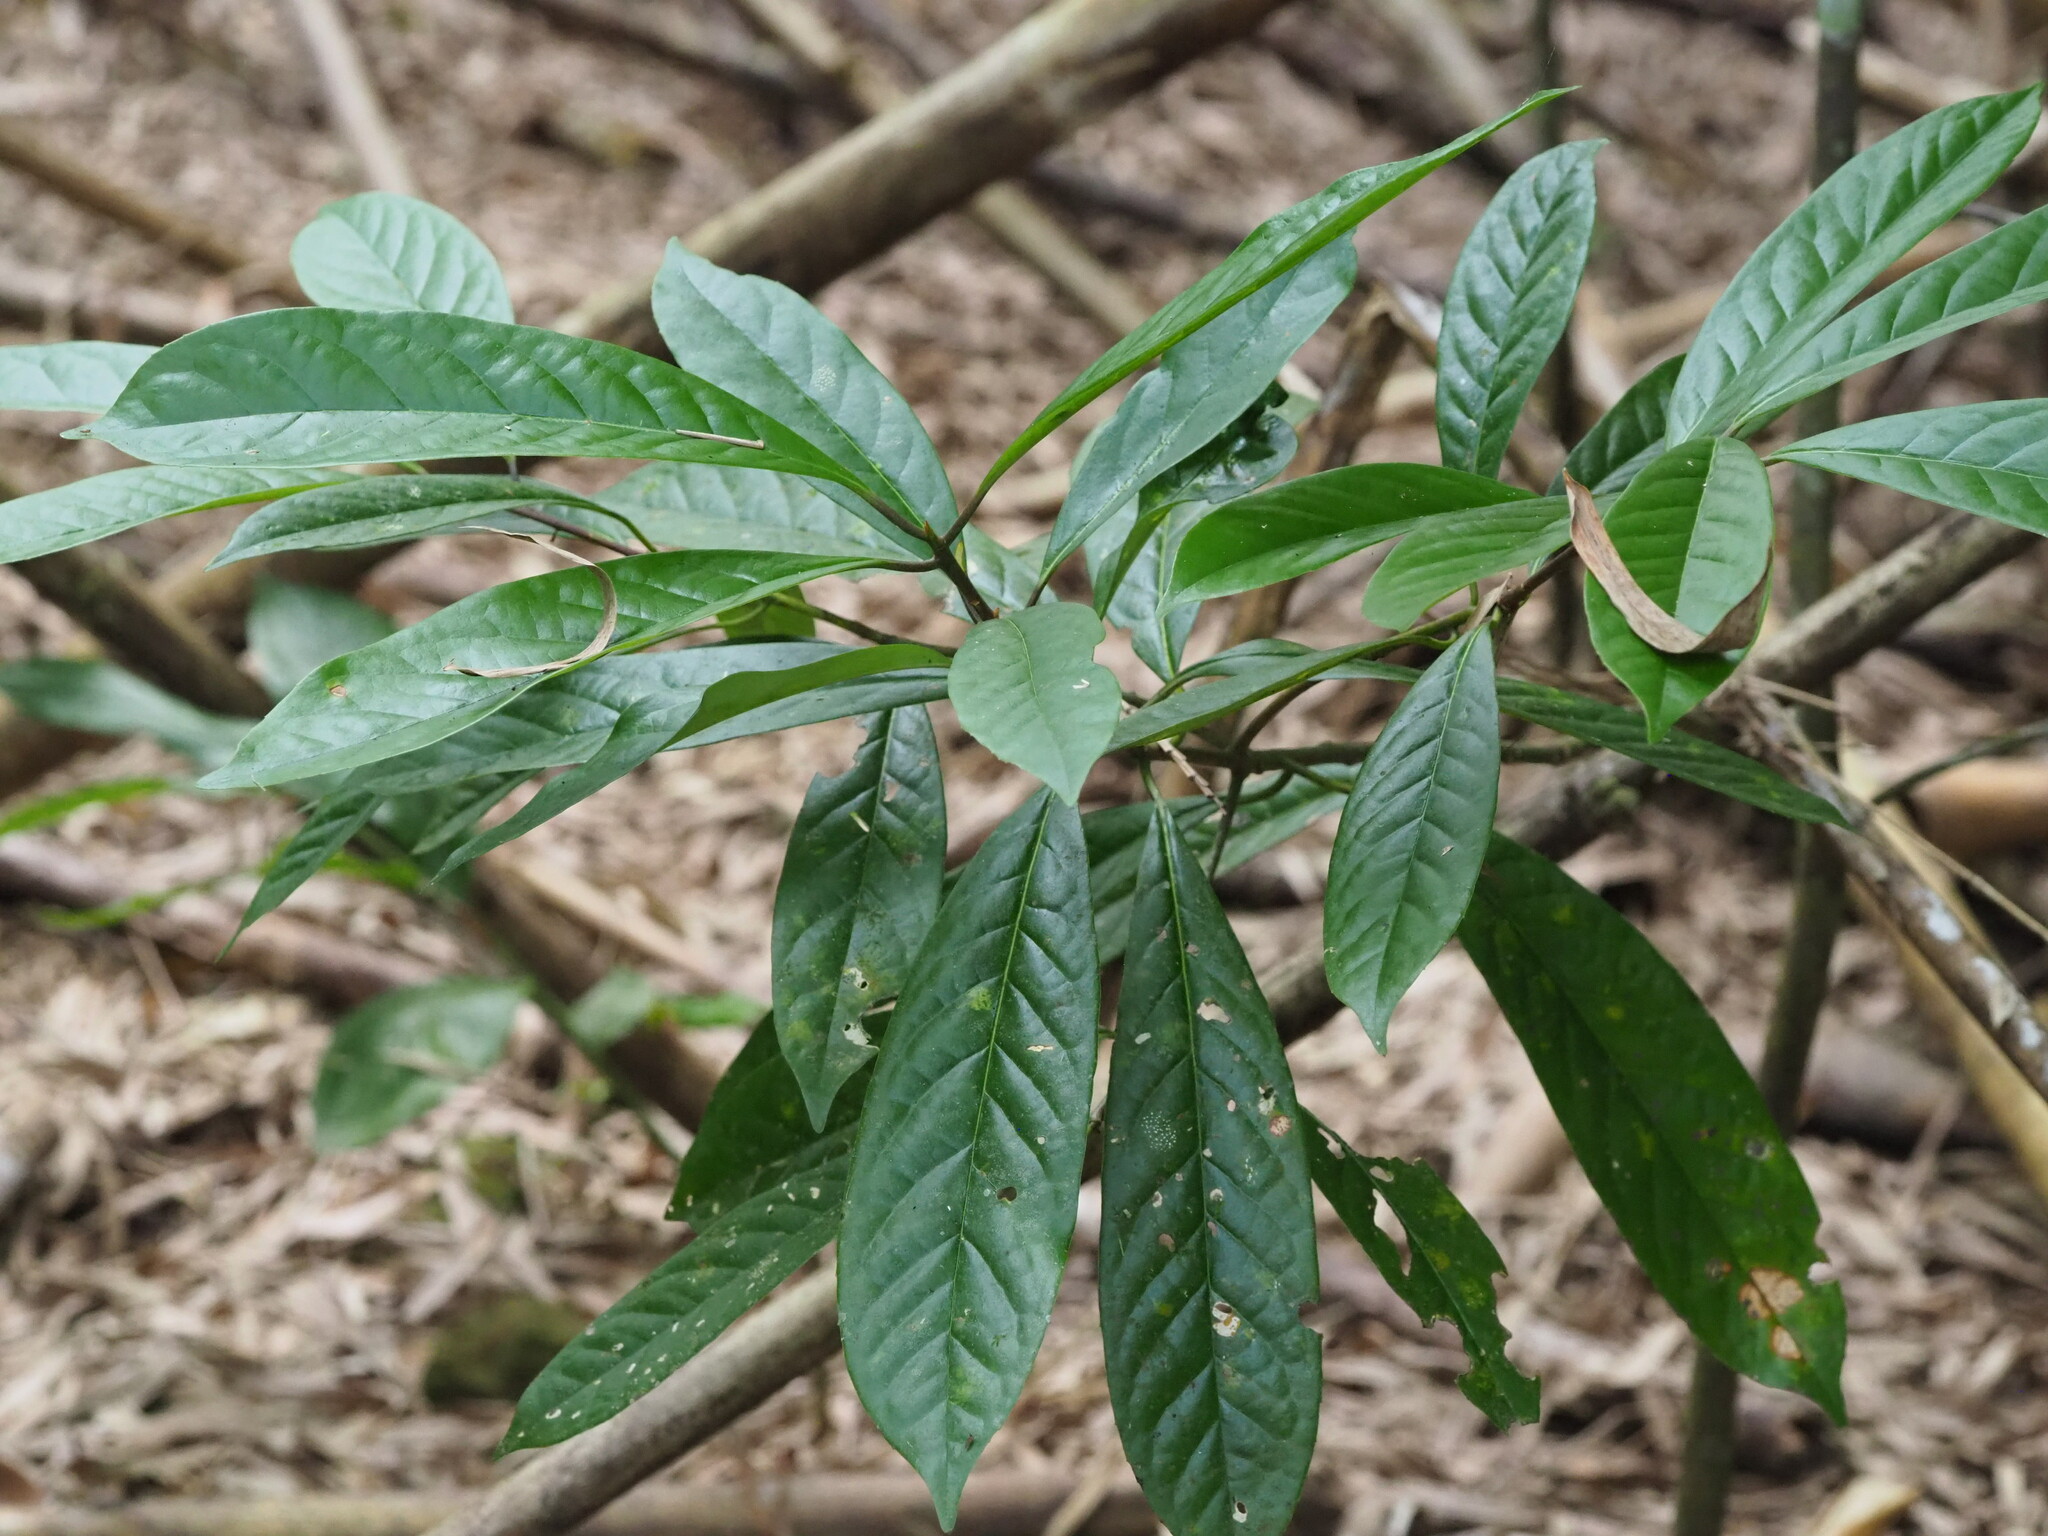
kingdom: Plantae
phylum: Tracheophyta
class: Magnoliopsida
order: Ericales
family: Symplocaceae
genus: Symplocos
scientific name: Symplocos glauca
